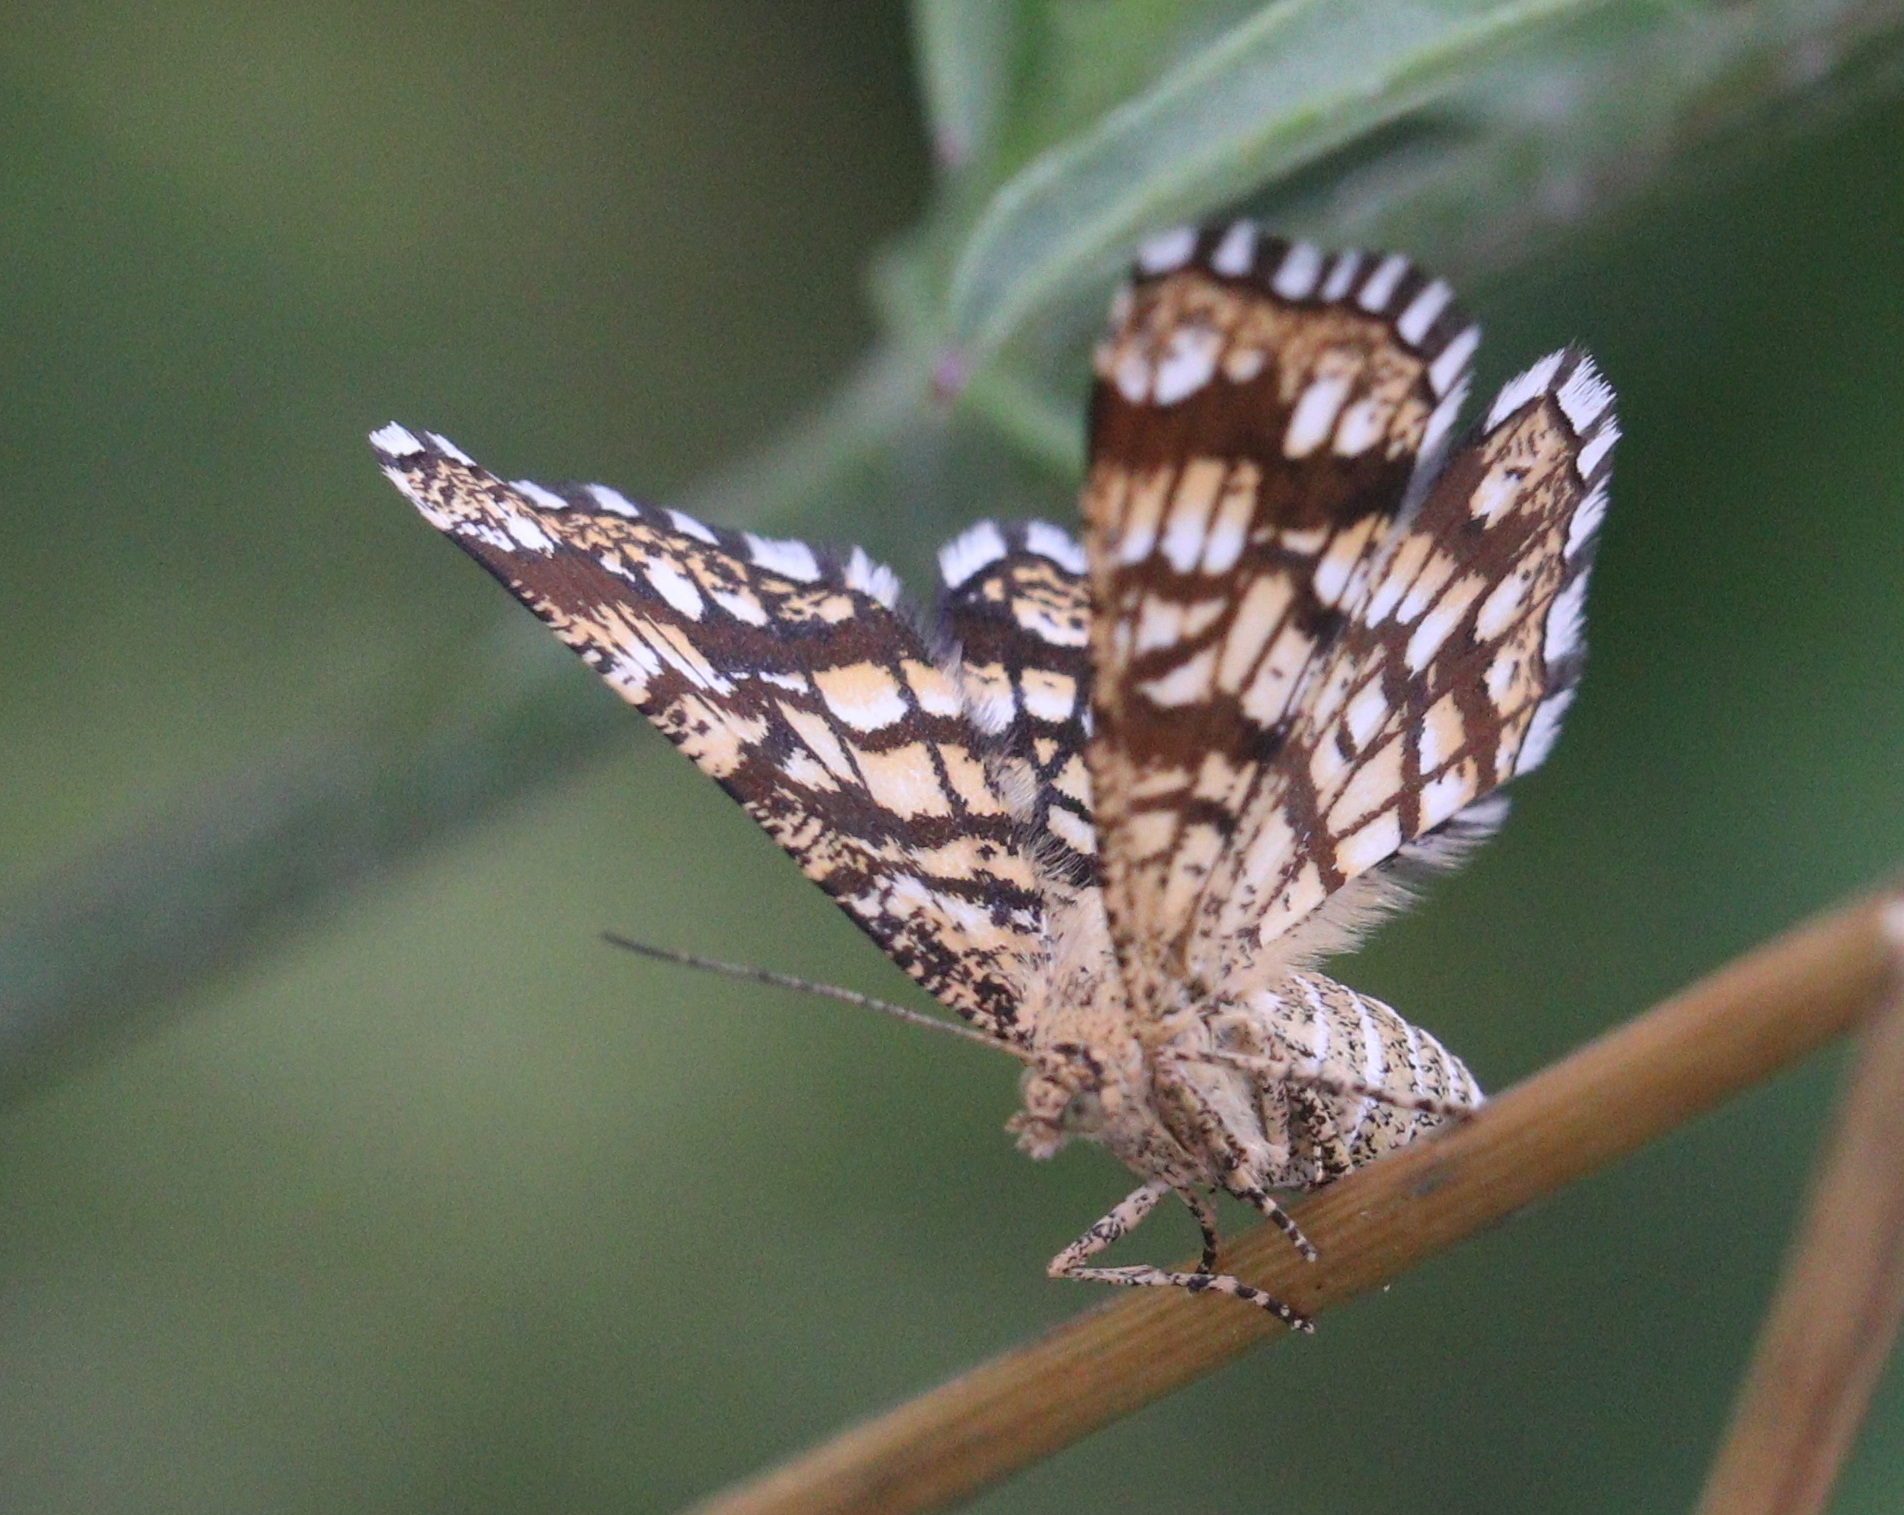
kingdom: Animalia
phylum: Arthropoda
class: Insecta
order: Lepidoptera
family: Geometridae
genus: Chiasmia
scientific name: Chiasmia clathrata
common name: Latticed heath
